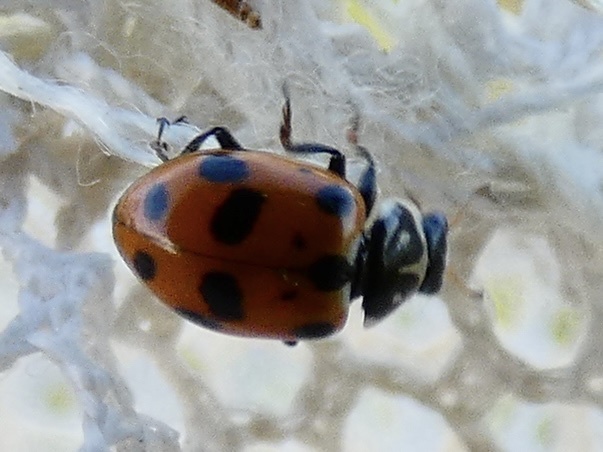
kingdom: Animalia
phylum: Arthropoda
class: Insecta
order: Coleoptera
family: Coccinellidae
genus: Hippodamia
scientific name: Hippodamia variegata
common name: Ladybird beetle
